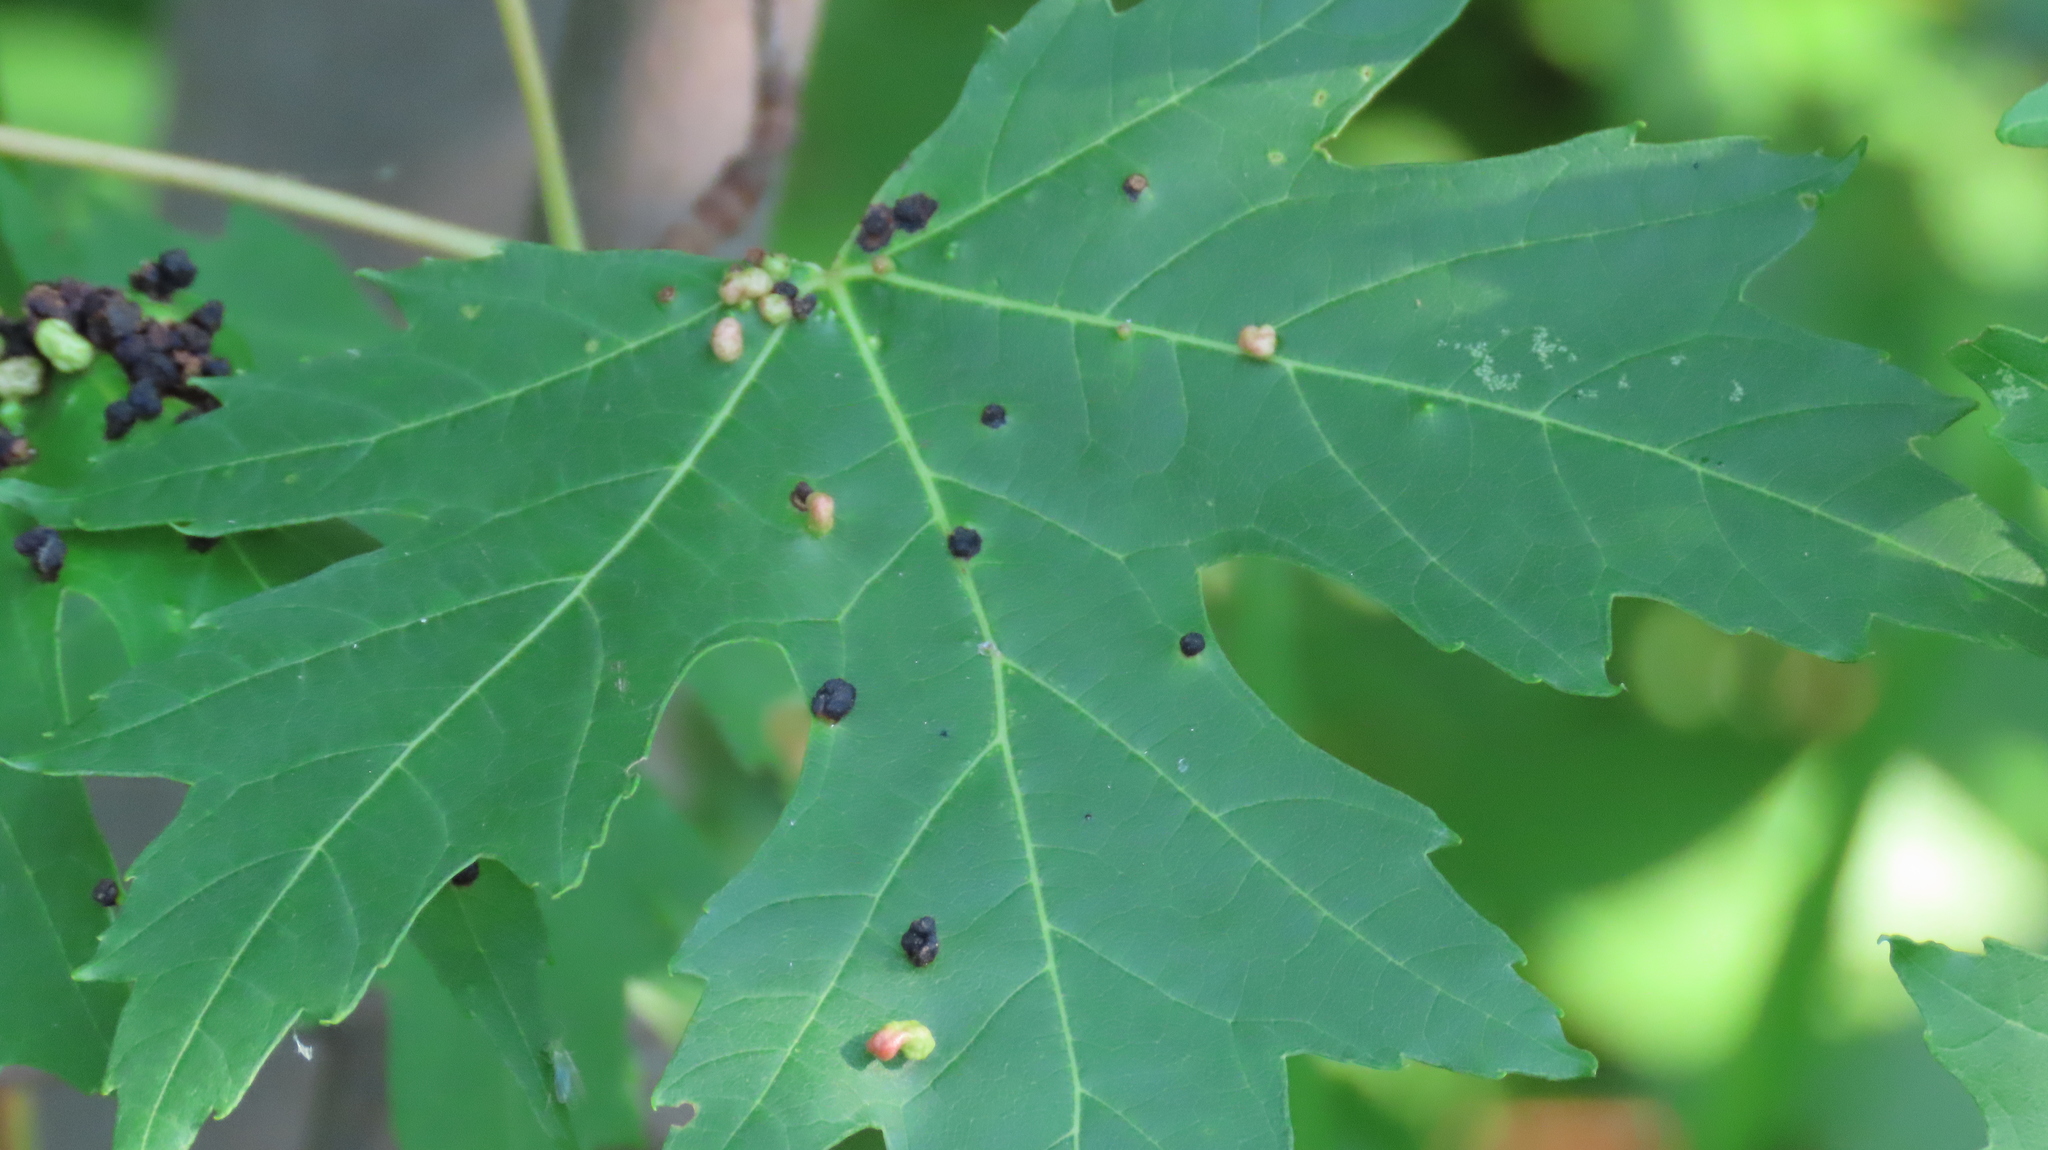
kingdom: Animalia
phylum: Arthropoda
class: Arachnida
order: Trombidiformes
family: Eriophyidae
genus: Vasates
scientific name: Vasates quadripedes
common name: Maple bladder gall mite
